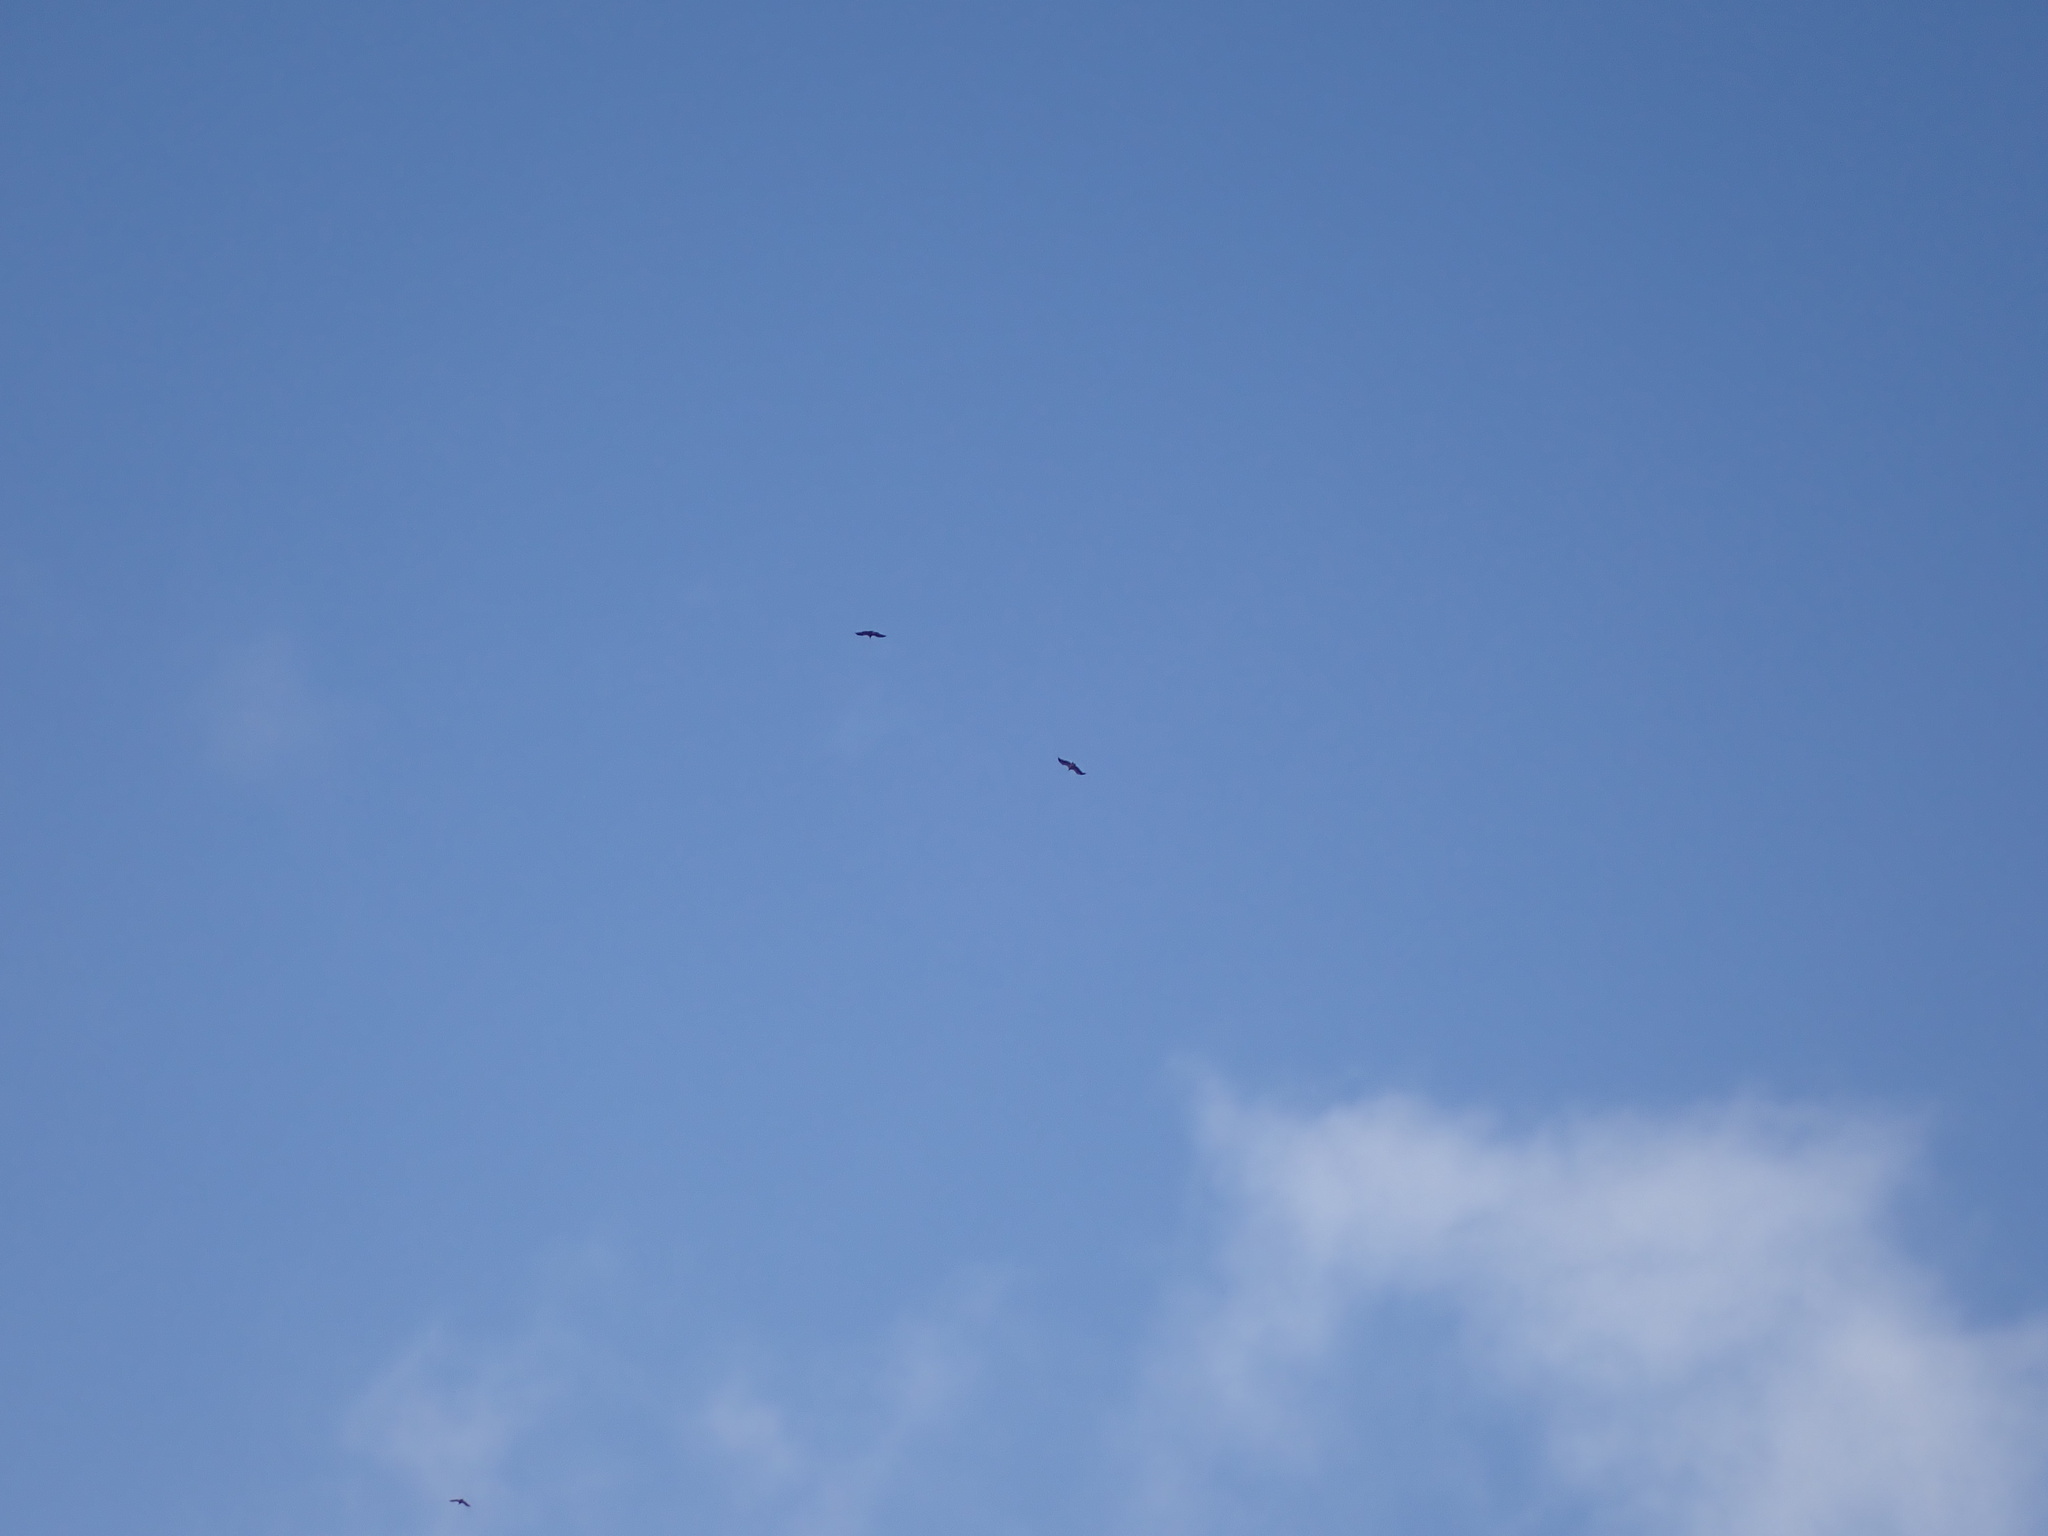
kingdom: Animalia
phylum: Chordata
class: Aves
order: Accipitriformes
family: Accipitridae
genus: Gyps
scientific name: Gyps fulvus
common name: Griffon vulture
